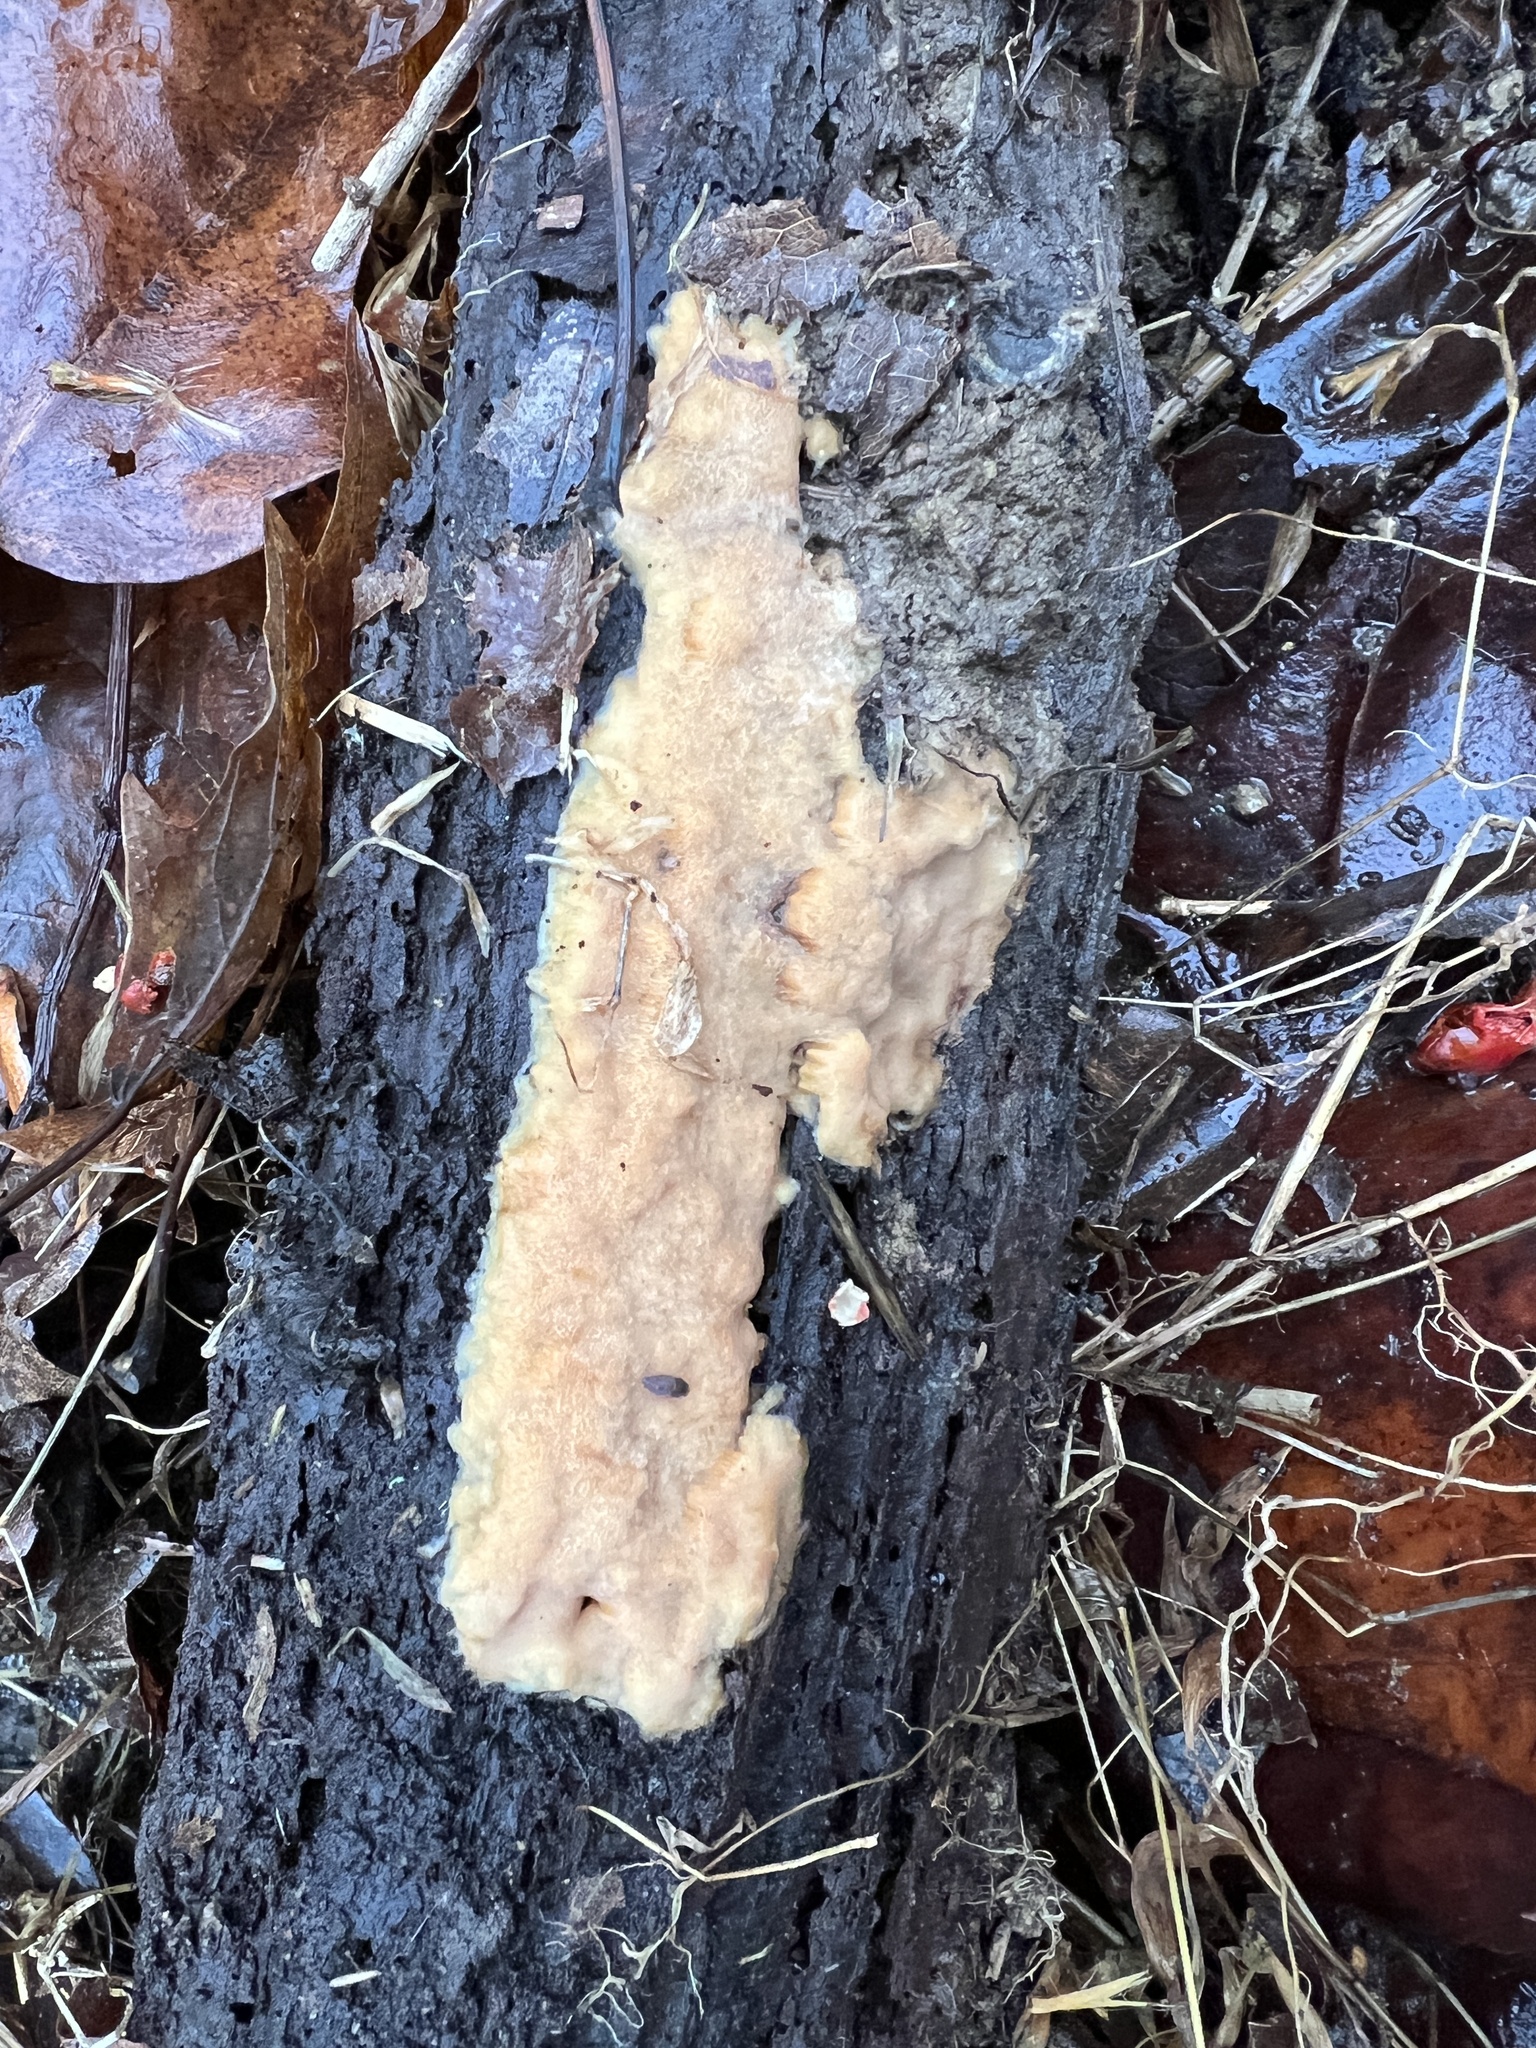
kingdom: Fungi
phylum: Basidiomycota
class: Agaricomycetes
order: Polyporales
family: Meripilaceae
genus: Rigidoporus
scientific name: Rigidoporus pouzarii
